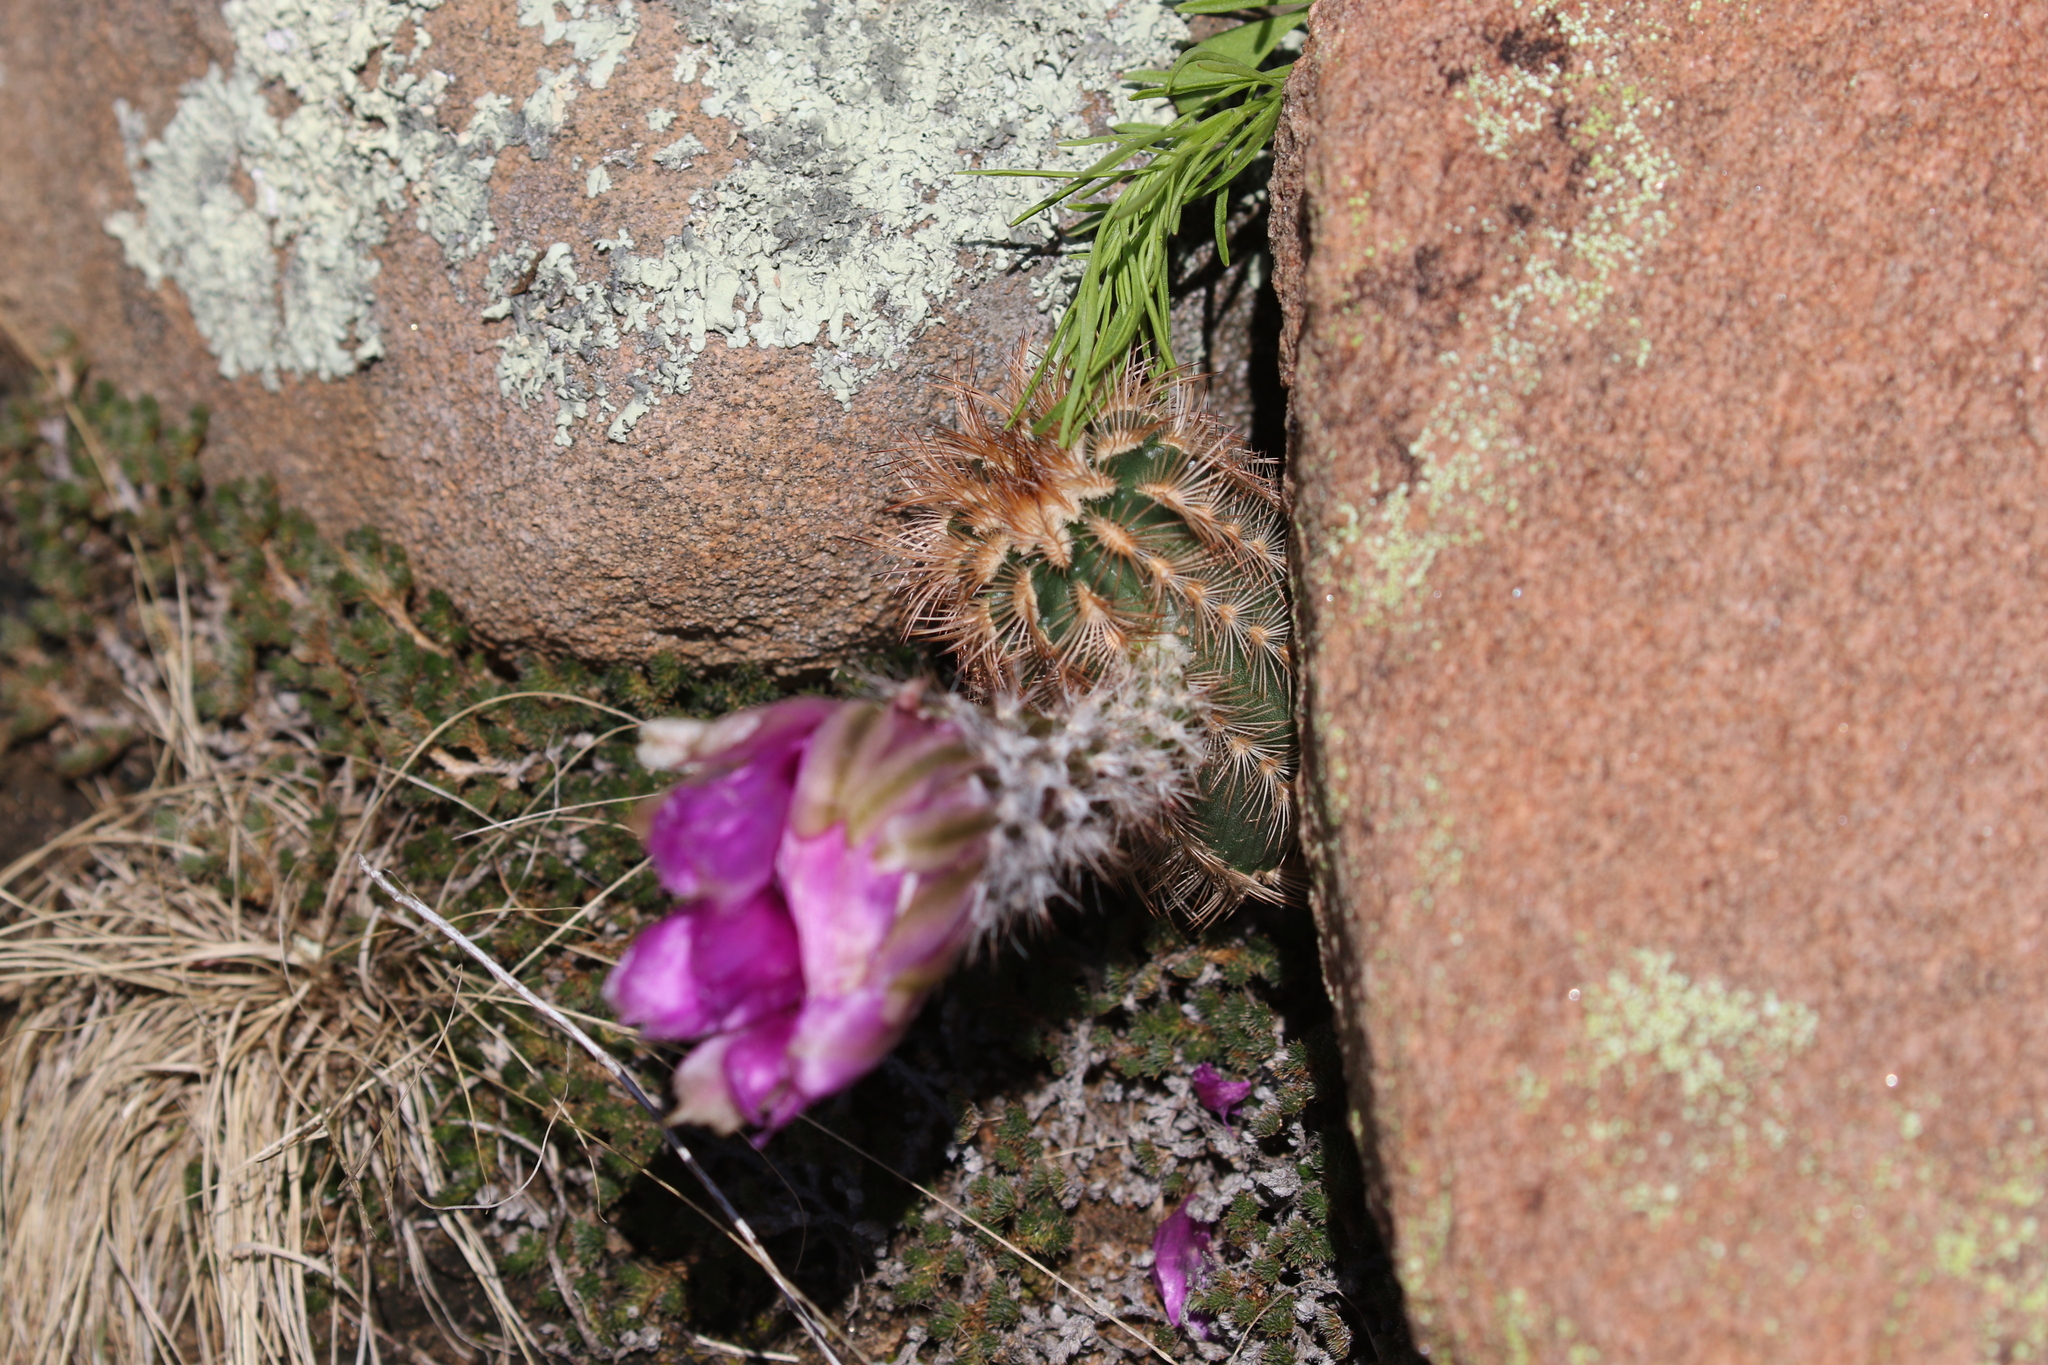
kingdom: Plantae
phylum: Tracheophyta
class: Magnoliopsida
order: Caryophyllales
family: Cactaceae
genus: Echinocereus
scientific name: Echinocereus reichenbachii
